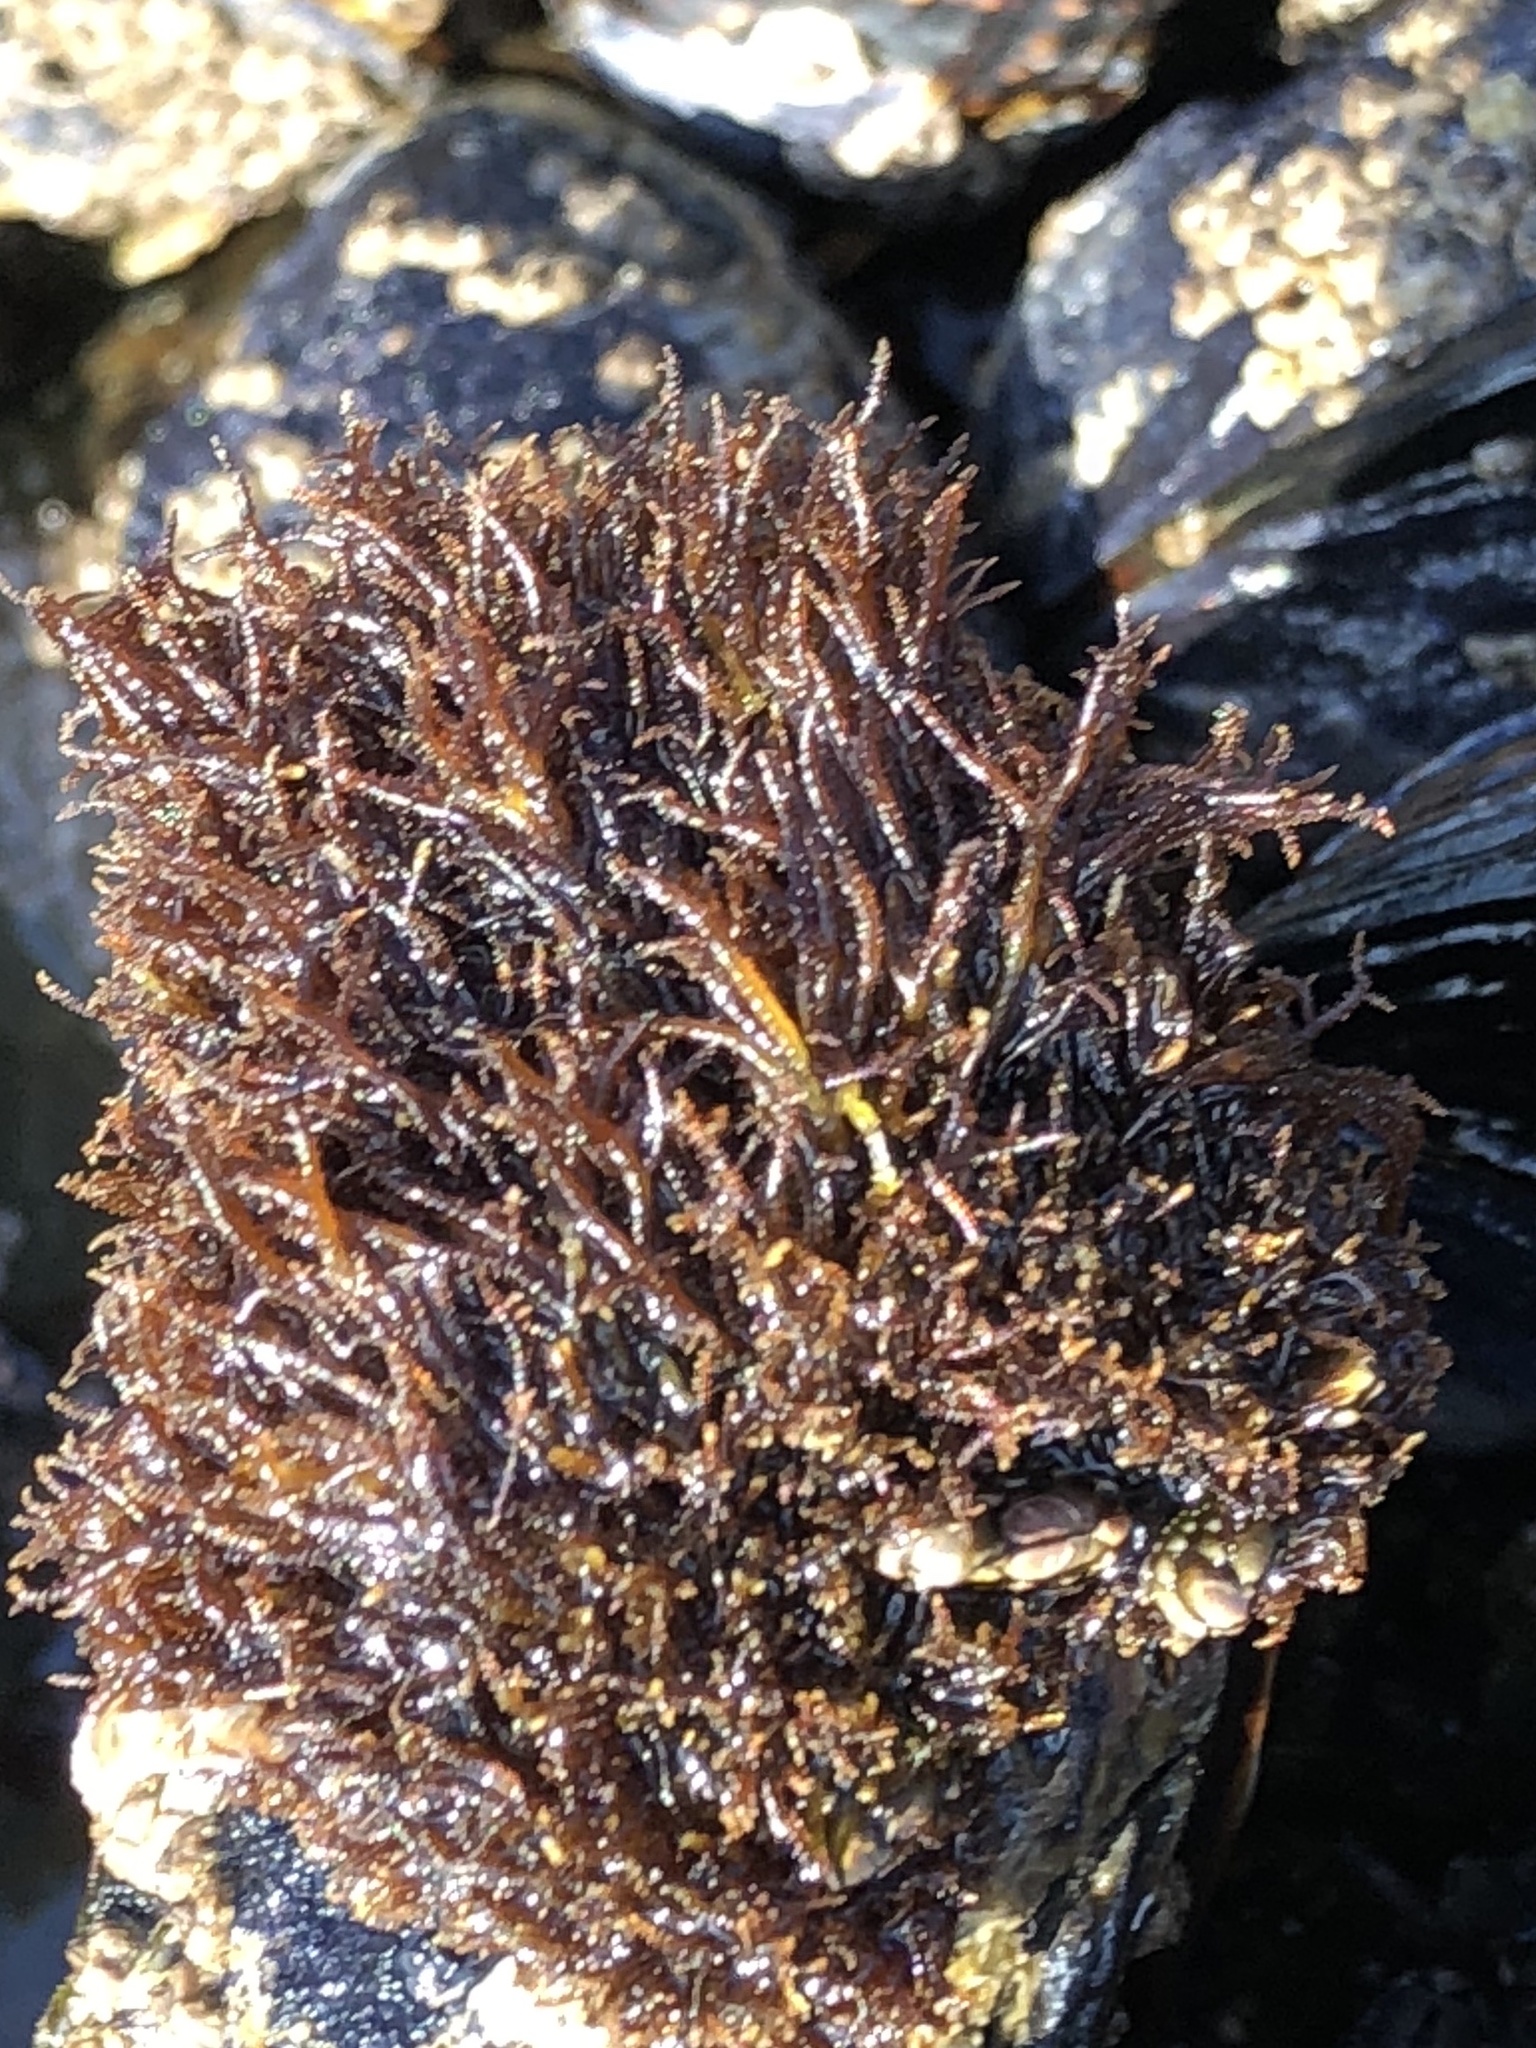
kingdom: Plantae
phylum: Rhodophyta
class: Florideophyceae
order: Gigartinales
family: Endocladiaceae
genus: Endocladia
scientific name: Endocladia muricata
